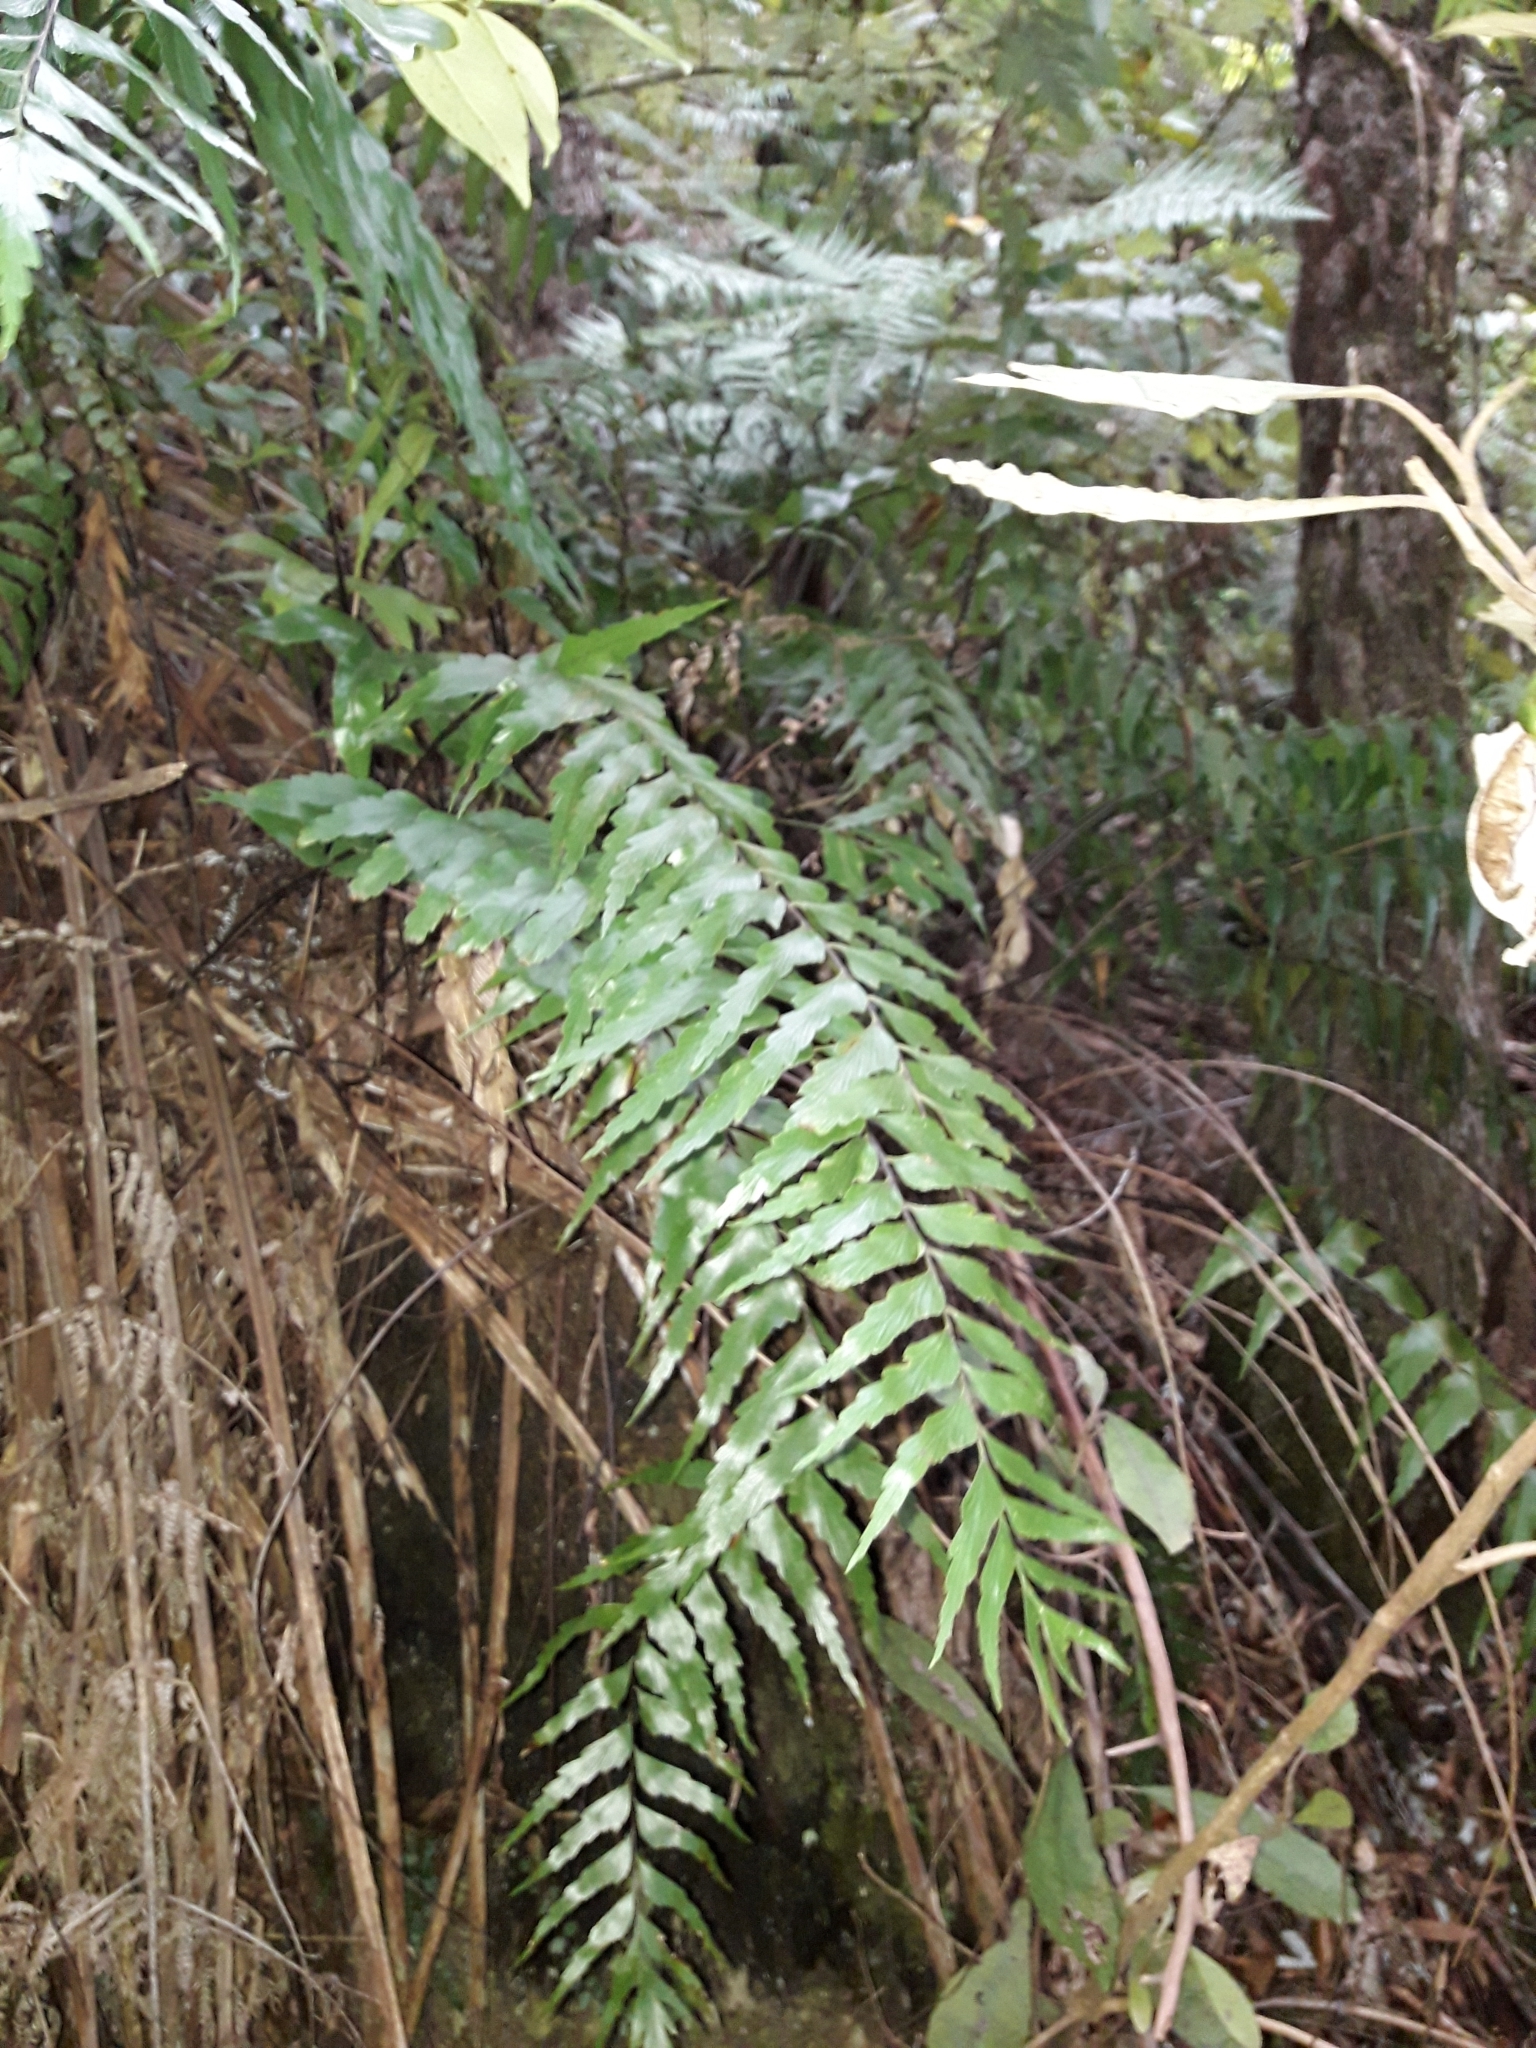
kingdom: Plantae
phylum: Tracheophyta
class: Polypodiopsida
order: Polypodiales
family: Aspleniaceae
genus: Asplenium
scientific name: Asplenium polyodon
